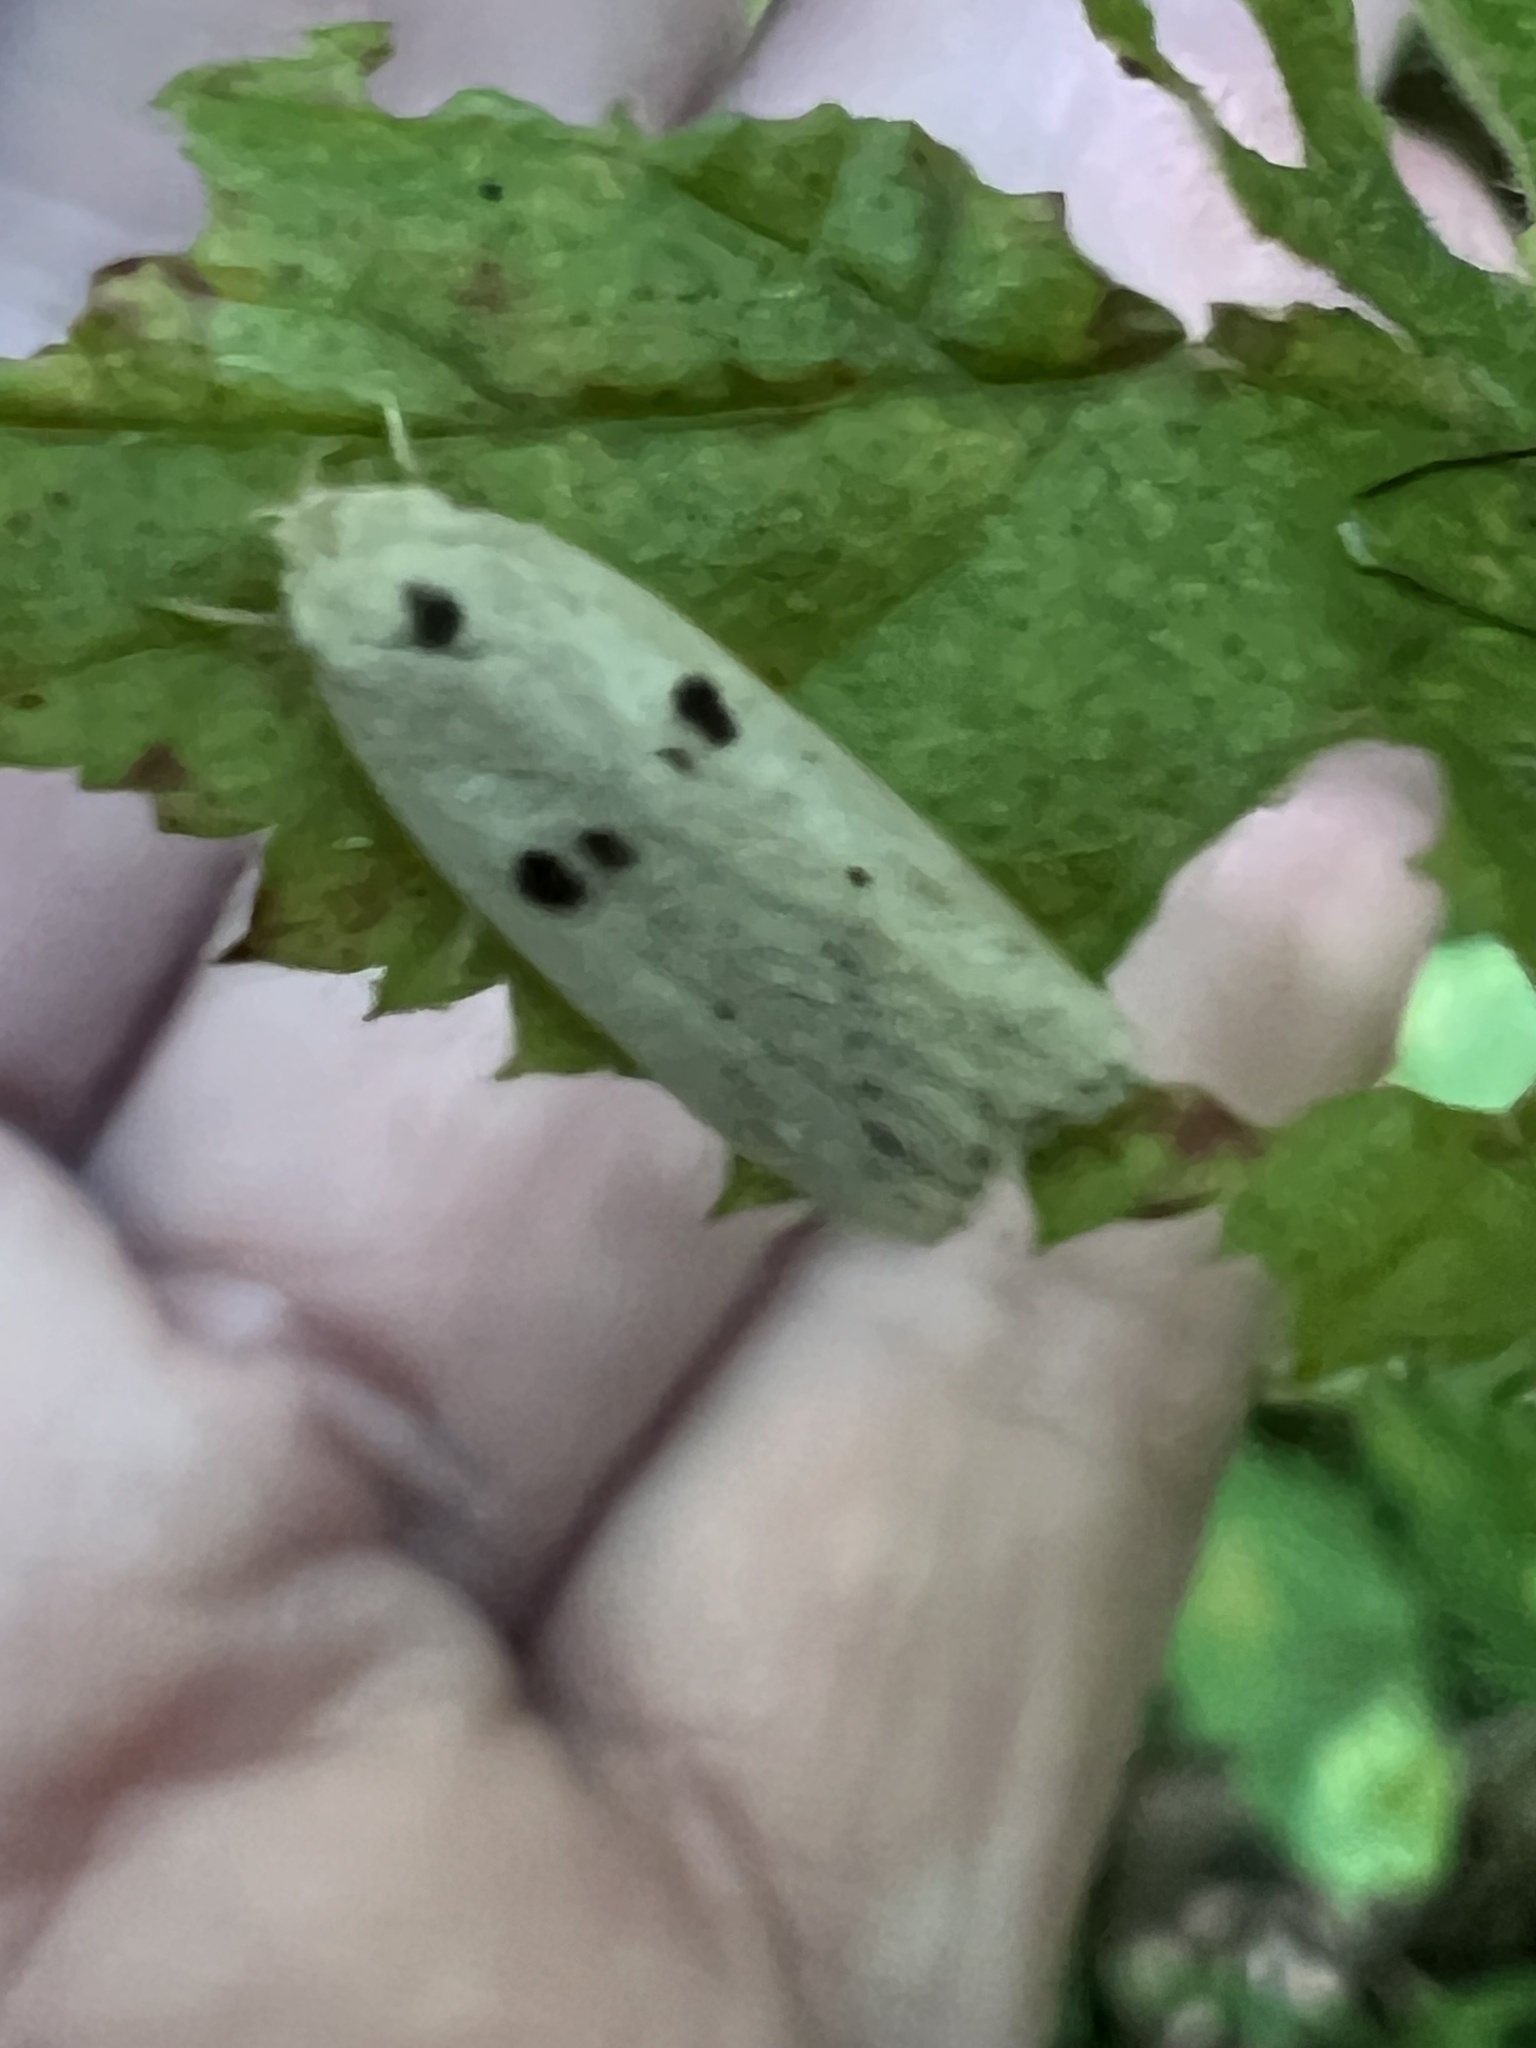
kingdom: Animalia
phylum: Arthropoda
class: Insecta
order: Lepidoptera
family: Peleopodidae
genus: Scythropiodes
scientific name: Scythropiodes issikii
